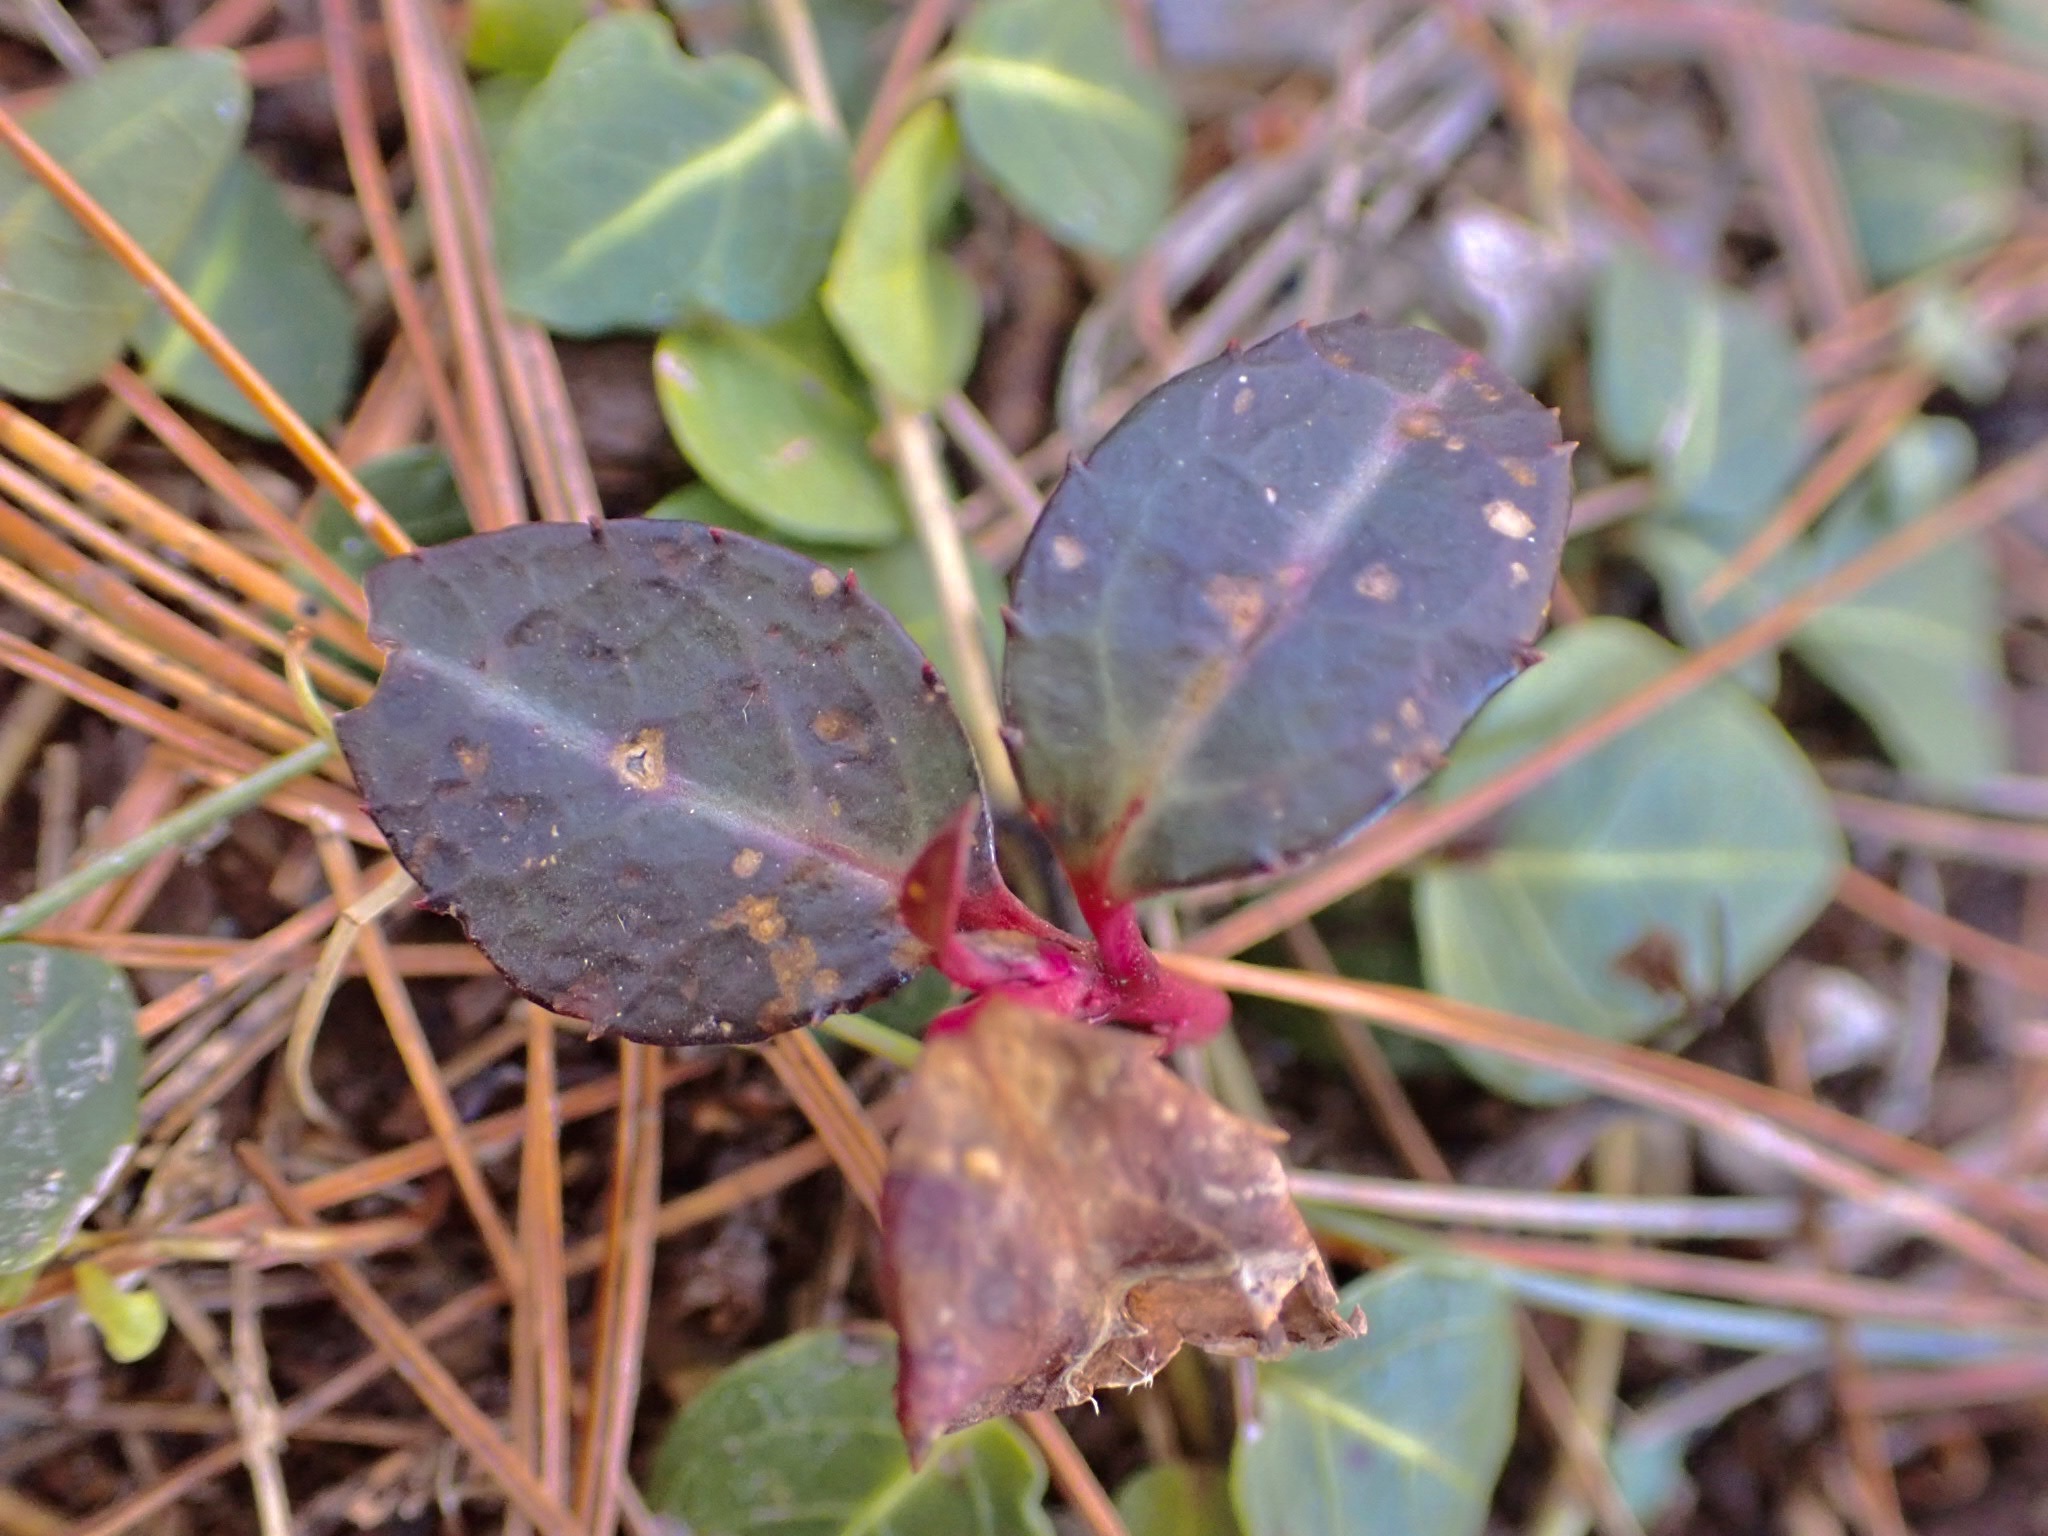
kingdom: Plantae
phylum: Tracheophyta
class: Magnoliopsida
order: Ericales
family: Ericaceae
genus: Chimaphila
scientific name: Chimaphila maculata
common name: Spotted pipsissewa
